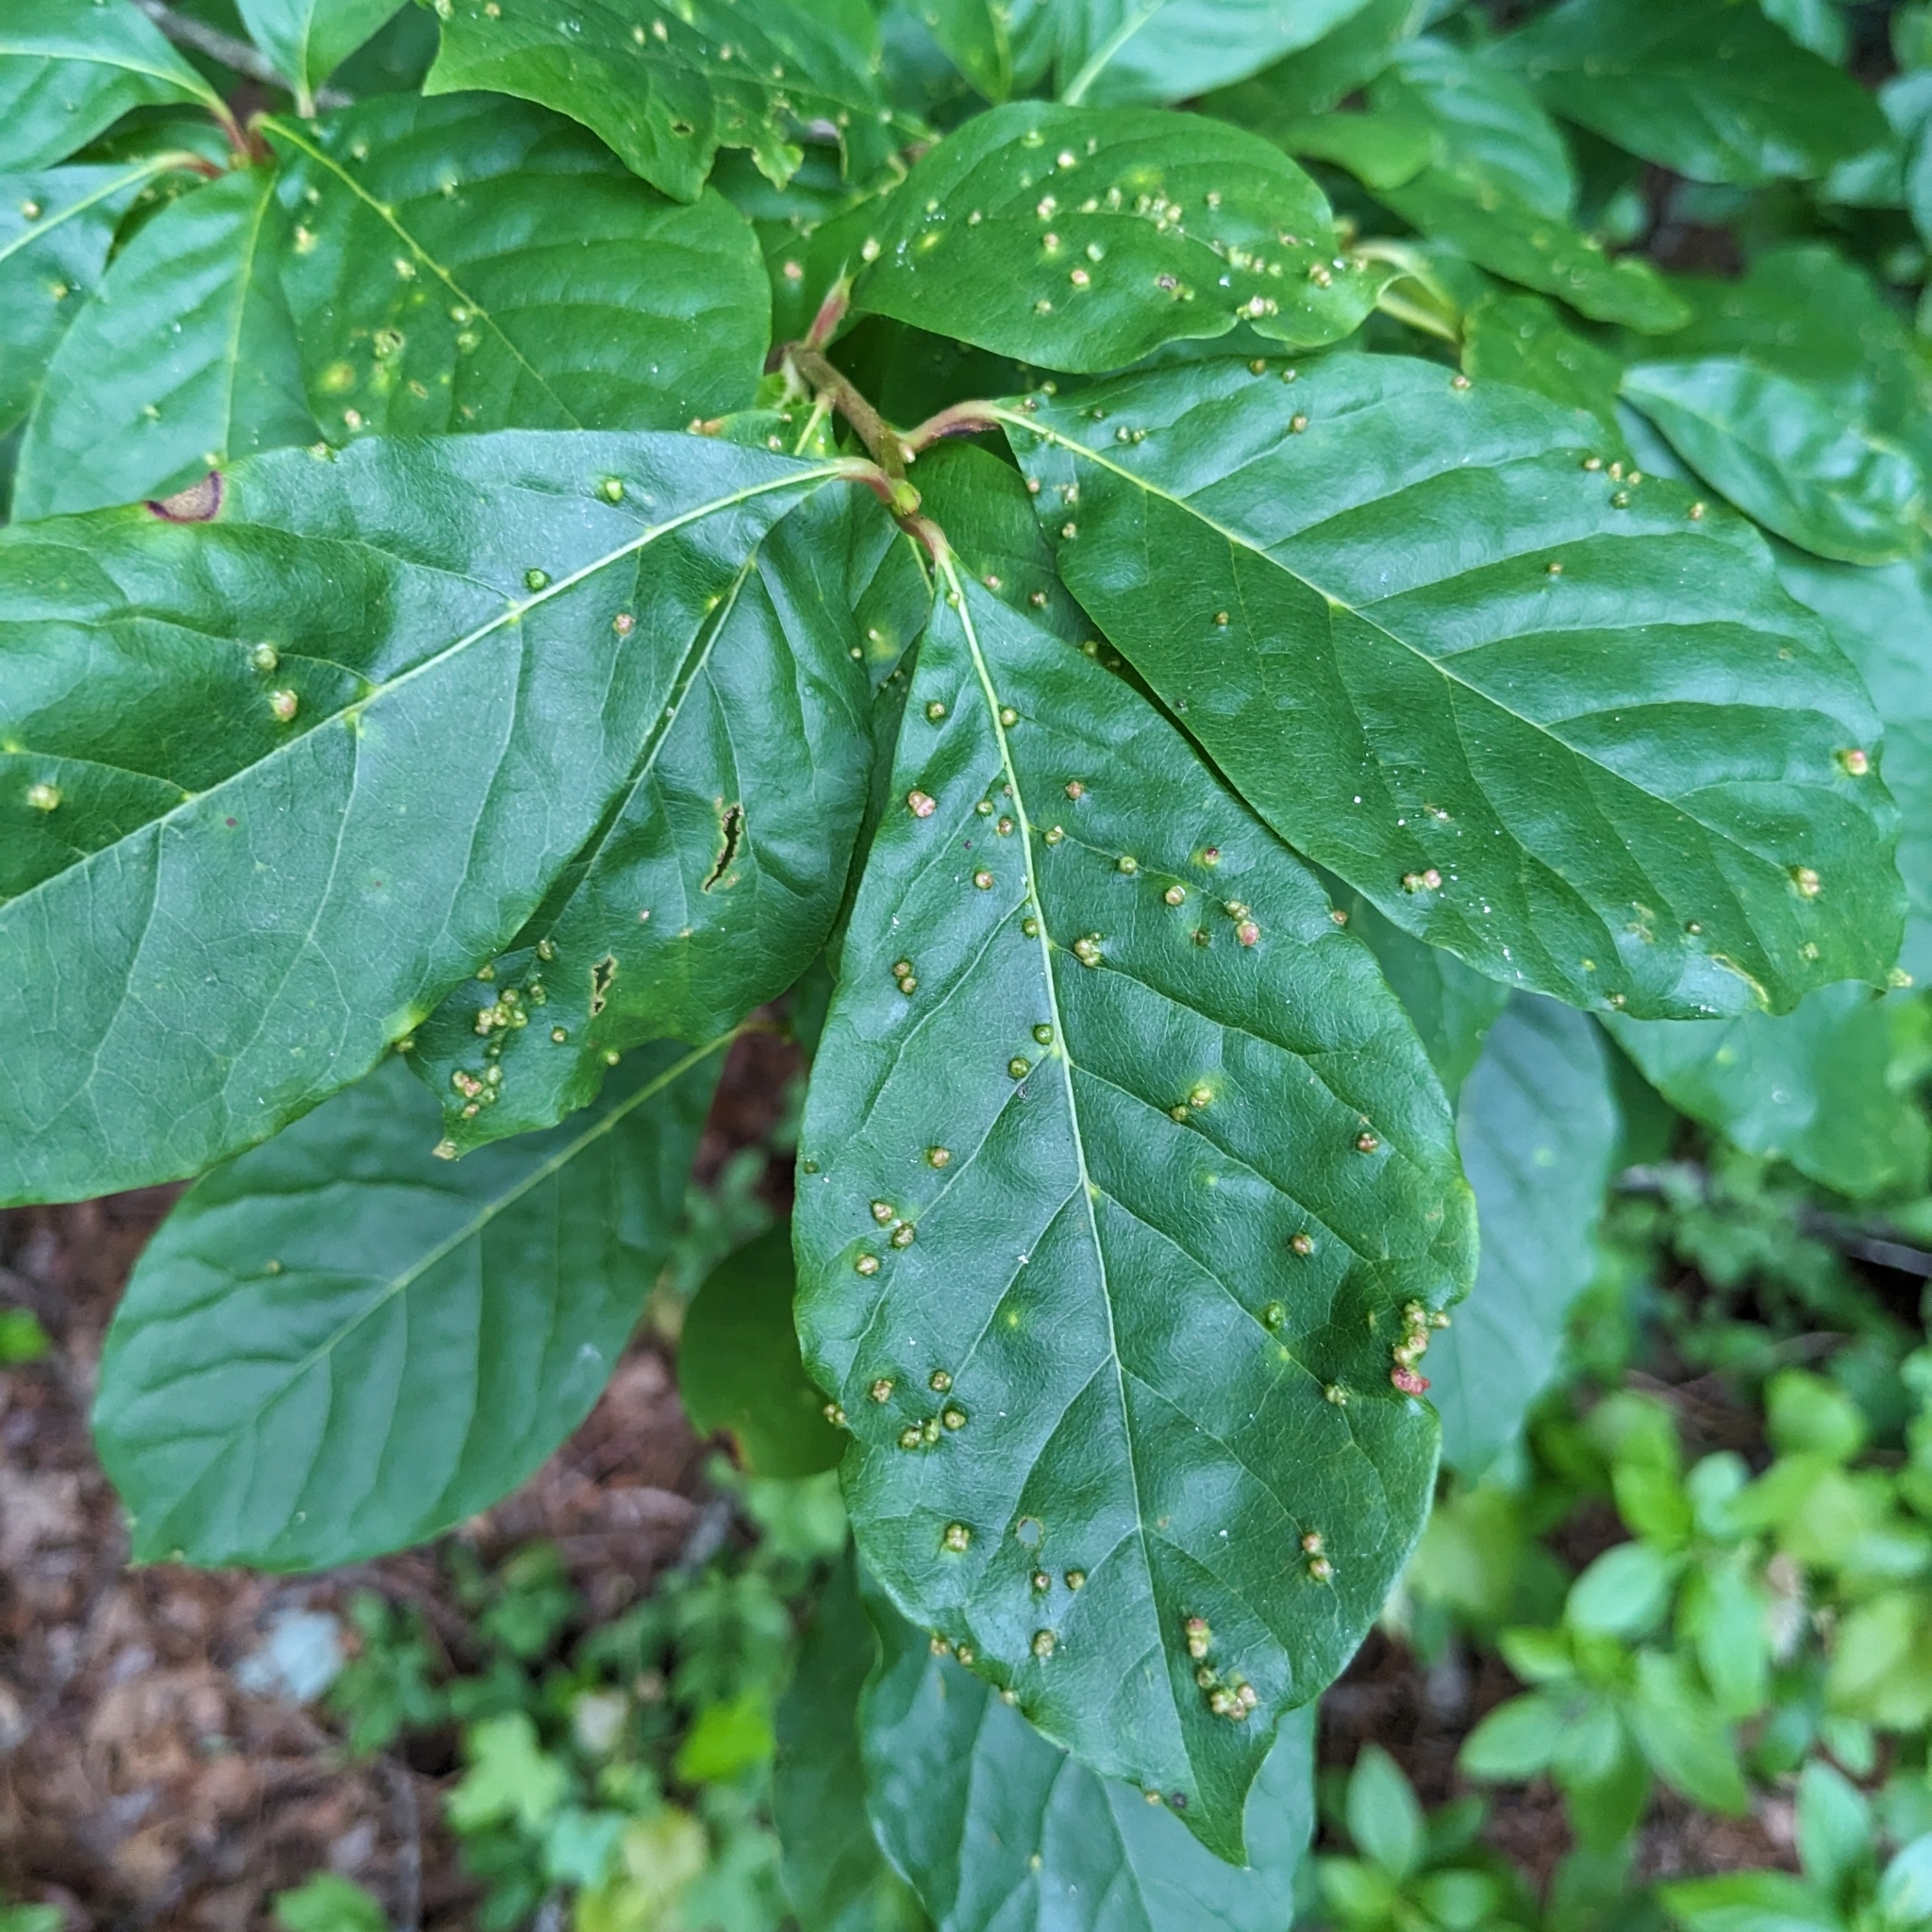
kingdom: Animalia
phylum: Arthropoda
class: Arachnida
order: Trombidiformes
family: Eriophyidae
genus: Aceria
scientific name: Aceria
